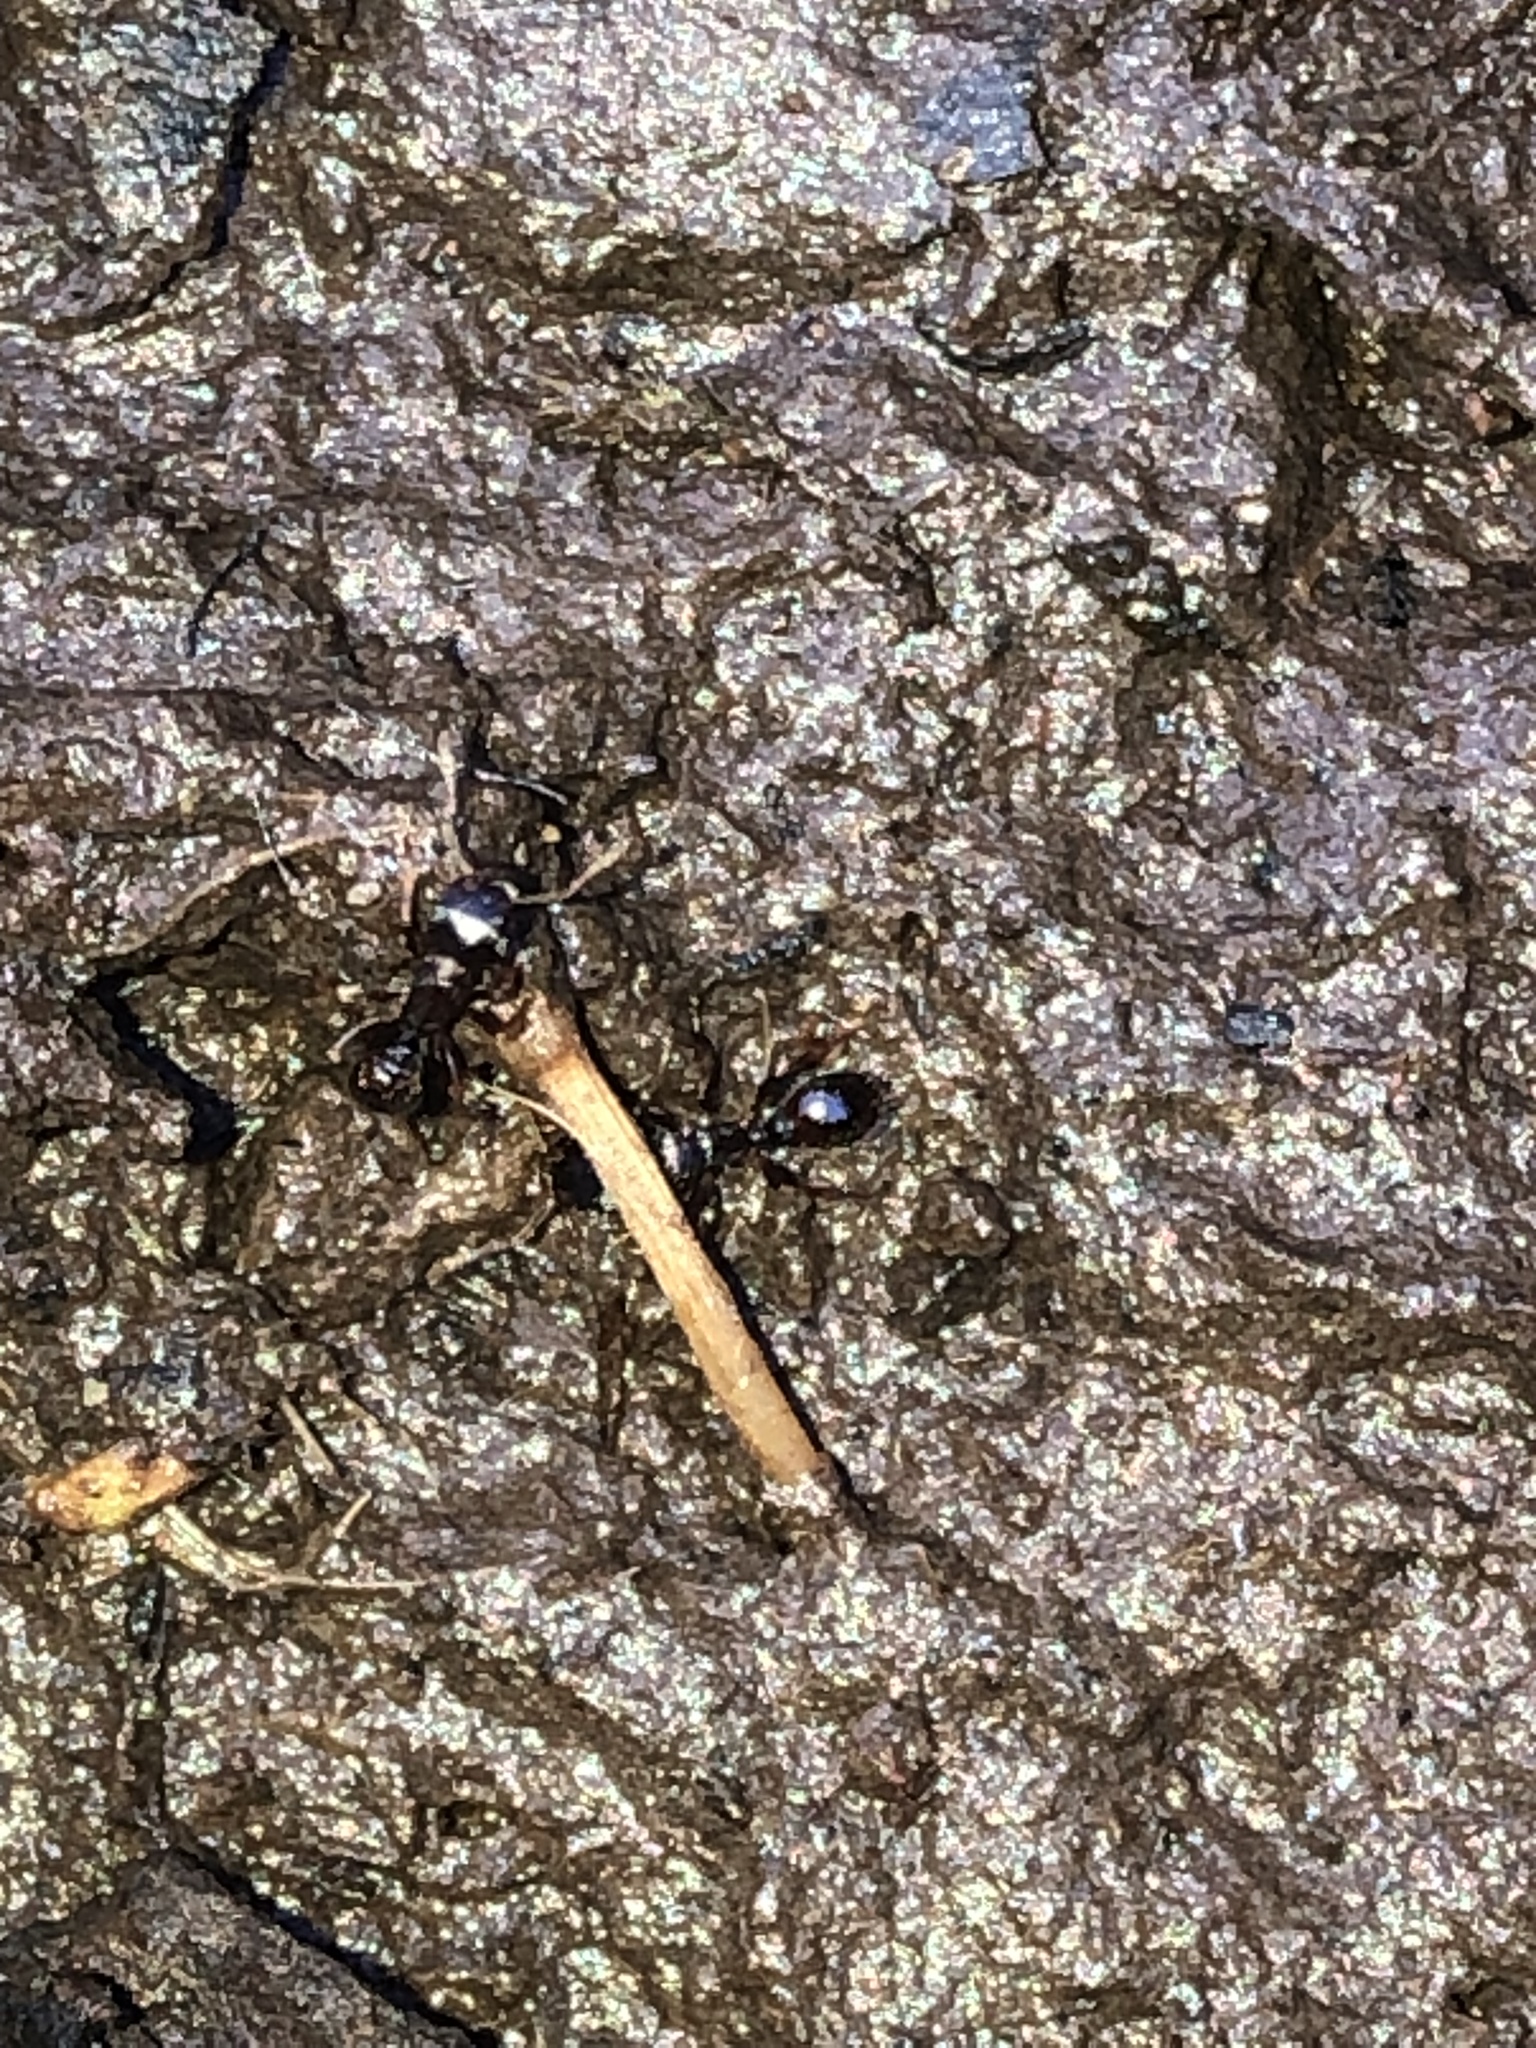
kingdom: Animalia
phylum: Arthropoda
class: Insecta
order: Hymenoptera
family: Formicidae
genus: Tetramorium
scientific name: Tetramorium immigrans
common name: Pavement ant
